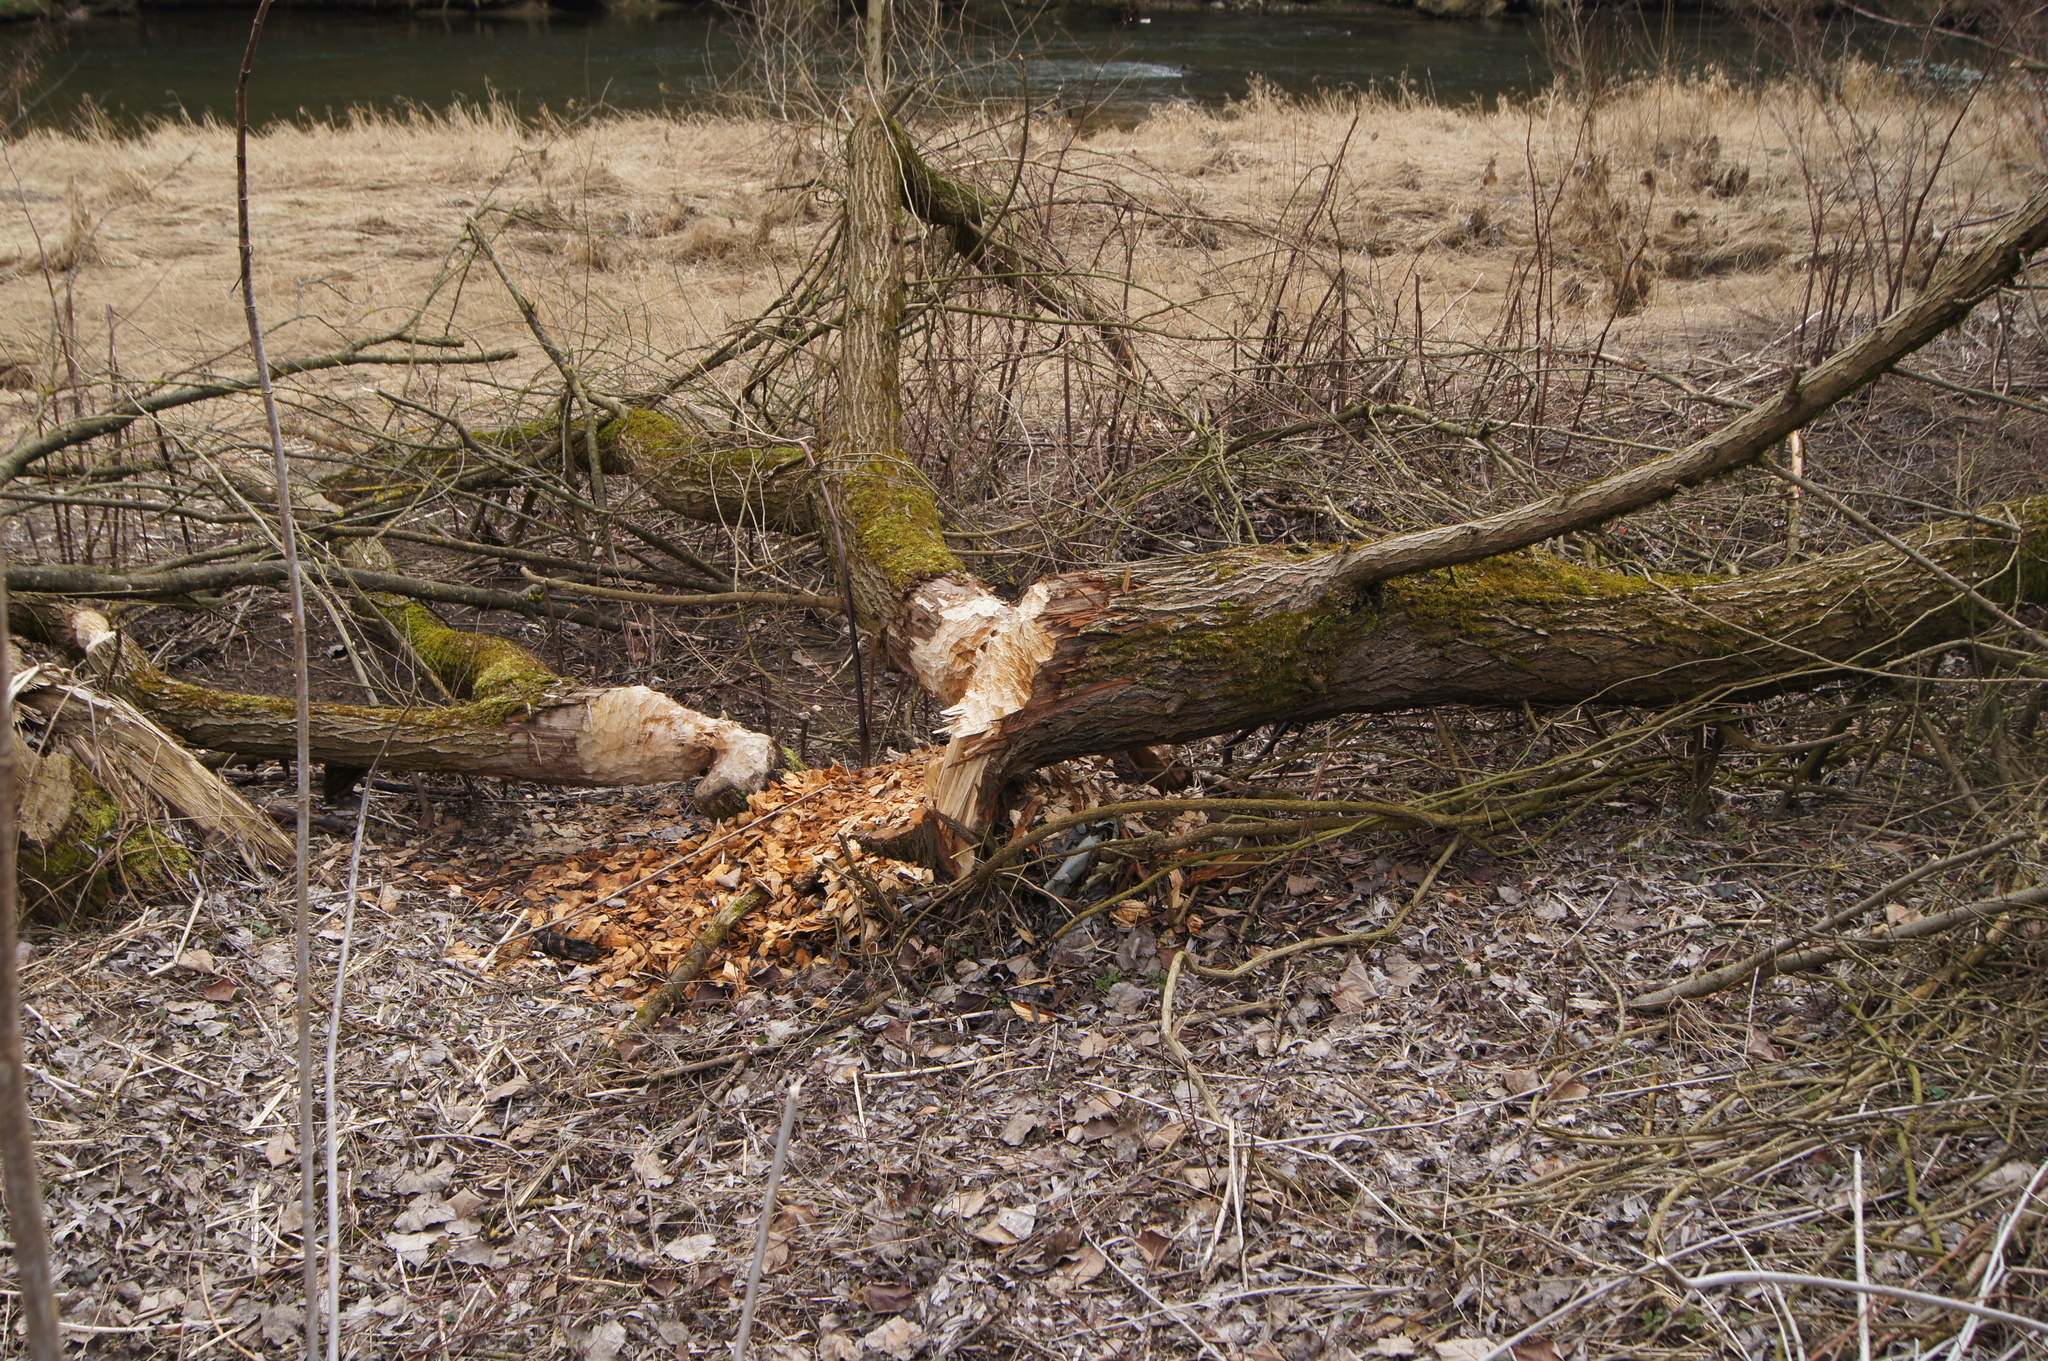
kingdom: Animalia
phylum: Chordata
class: Mammalia
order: Rodentia
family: Castoridae
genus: Castor
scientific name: Castor fiber
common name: Eurasian beaver
